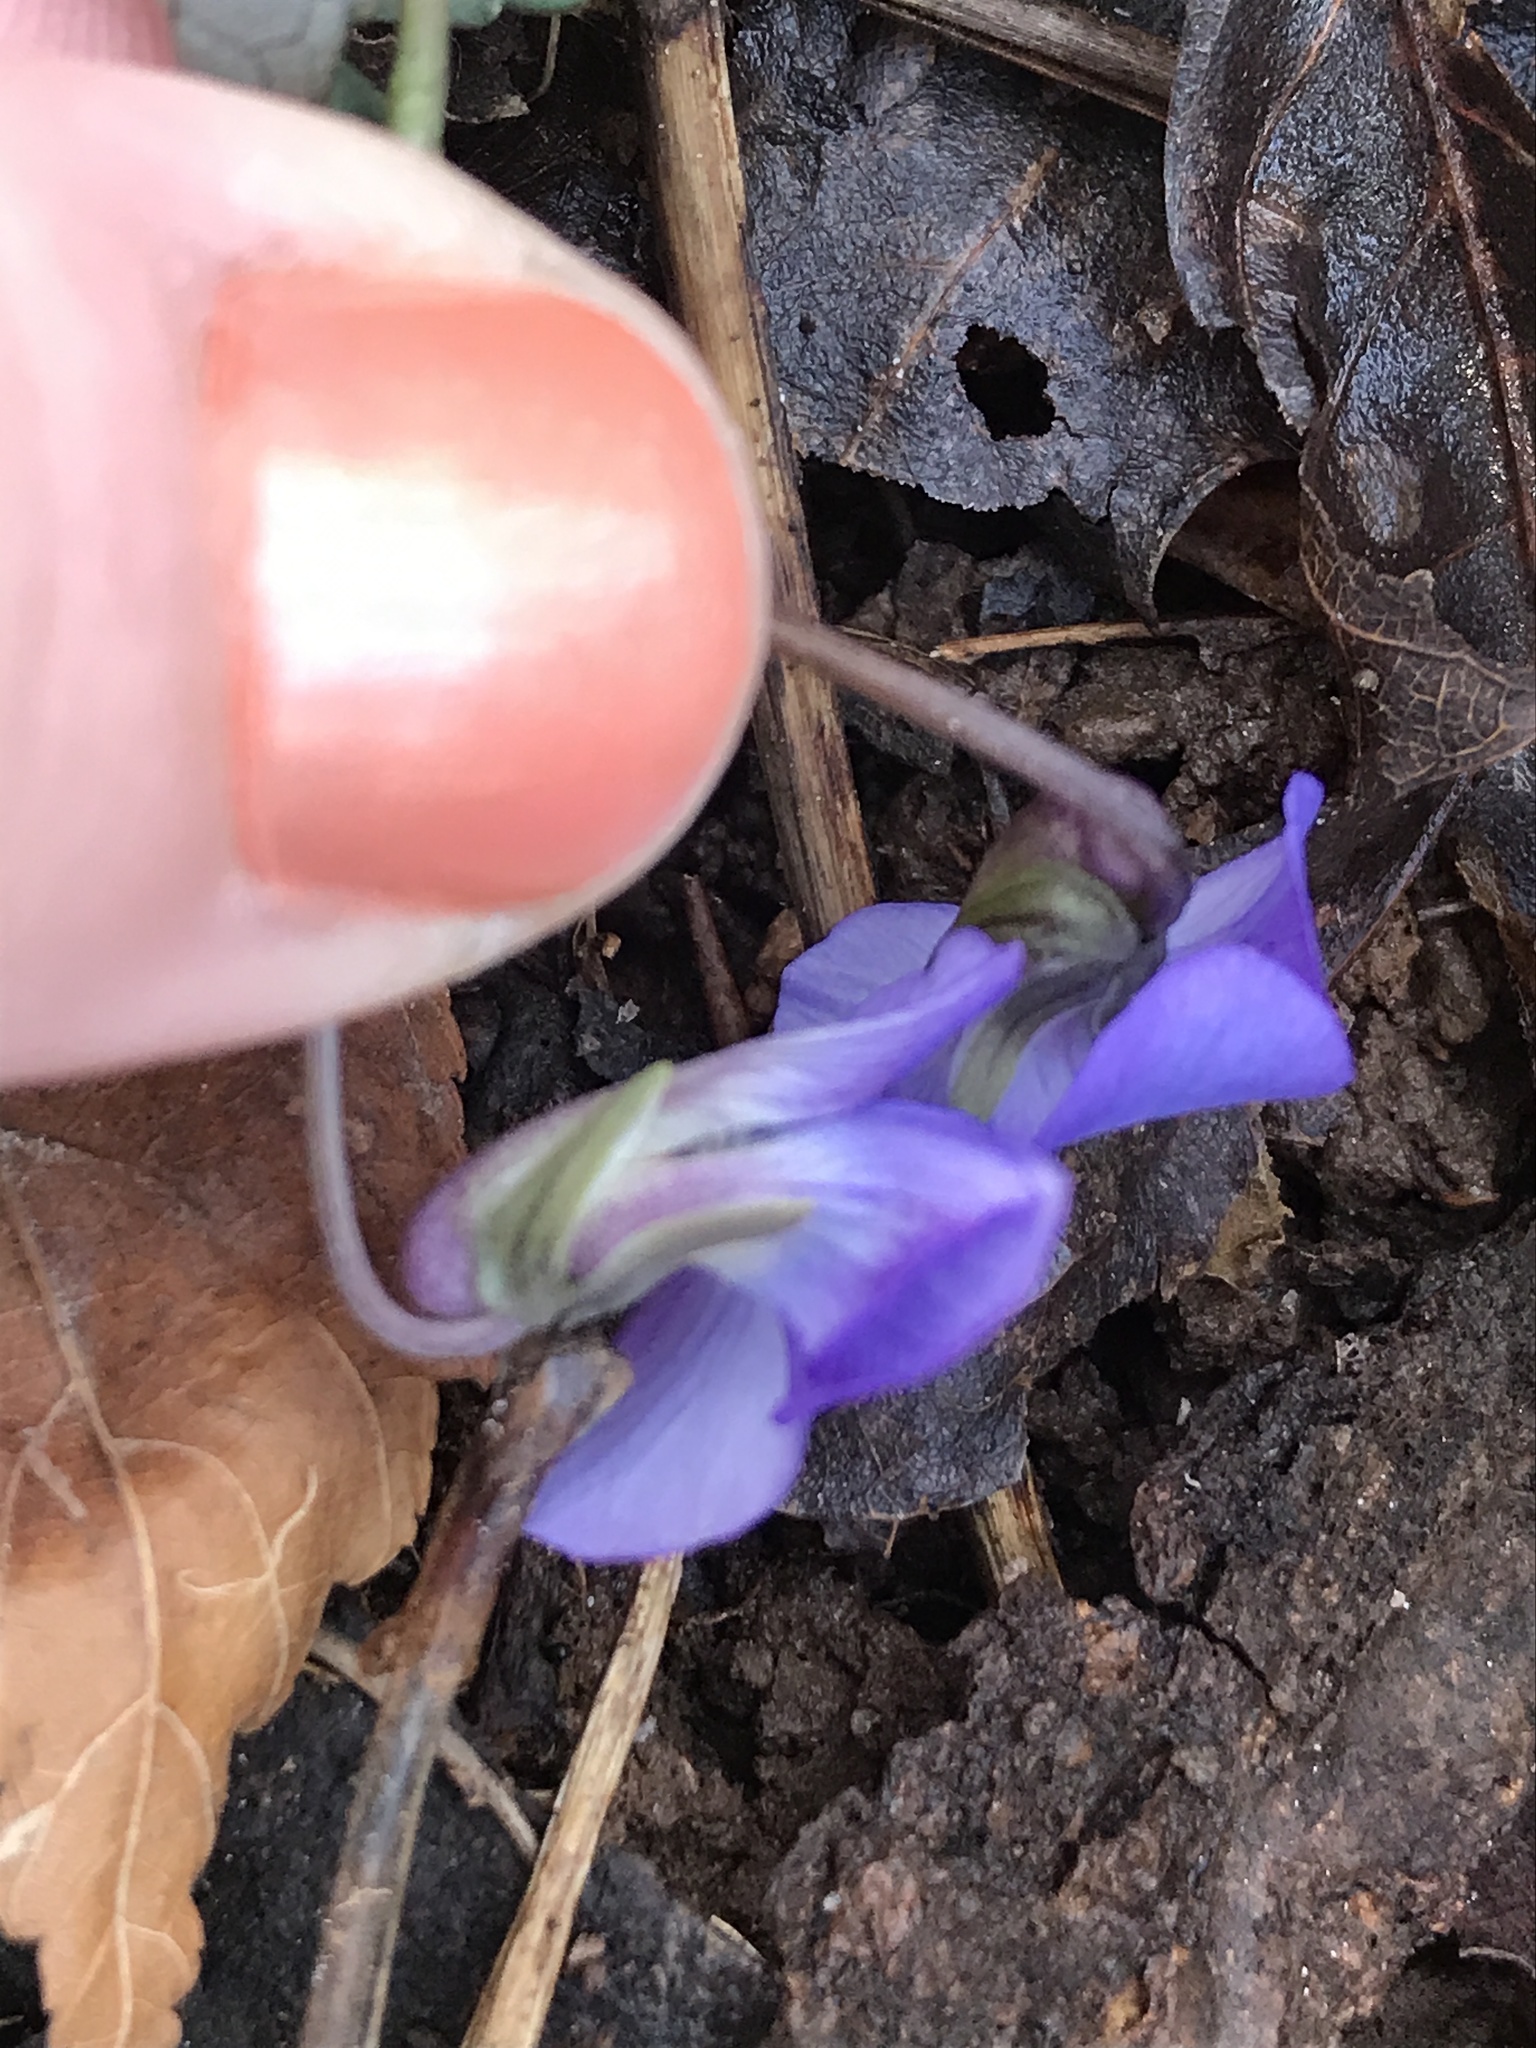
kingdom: Plantae
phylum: Tracheophyta
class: Magnoliopsida
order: Malpighiales
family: Violaceae
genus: Viola
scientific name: Viola sororia
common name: Dooryard violet
